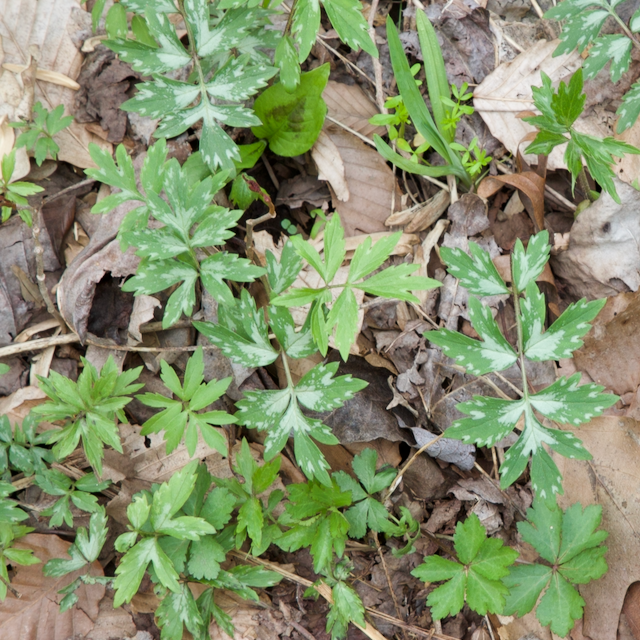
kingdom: Plantae
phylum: Tracheophyta
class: Magnoliopsida
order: Boraginales
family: Hydrophyllaceae
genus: Hydrophyllum
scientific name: Hydrophyllum virginianum
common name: Virginia waterleaf
